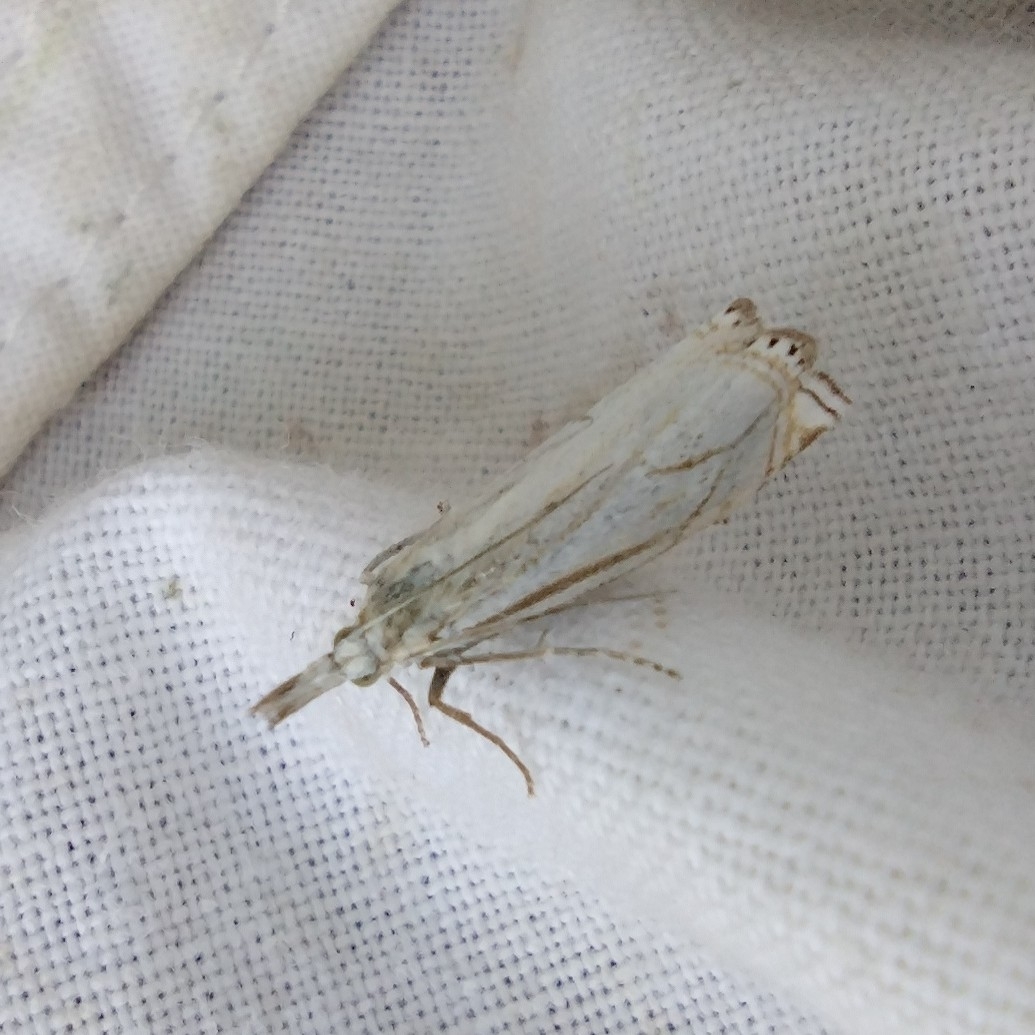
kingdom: Animalia
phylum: Arthropoda
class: Insecta
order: Lepidoptera
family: Crambidae
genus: Crambus
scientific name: Crambus nemorella
